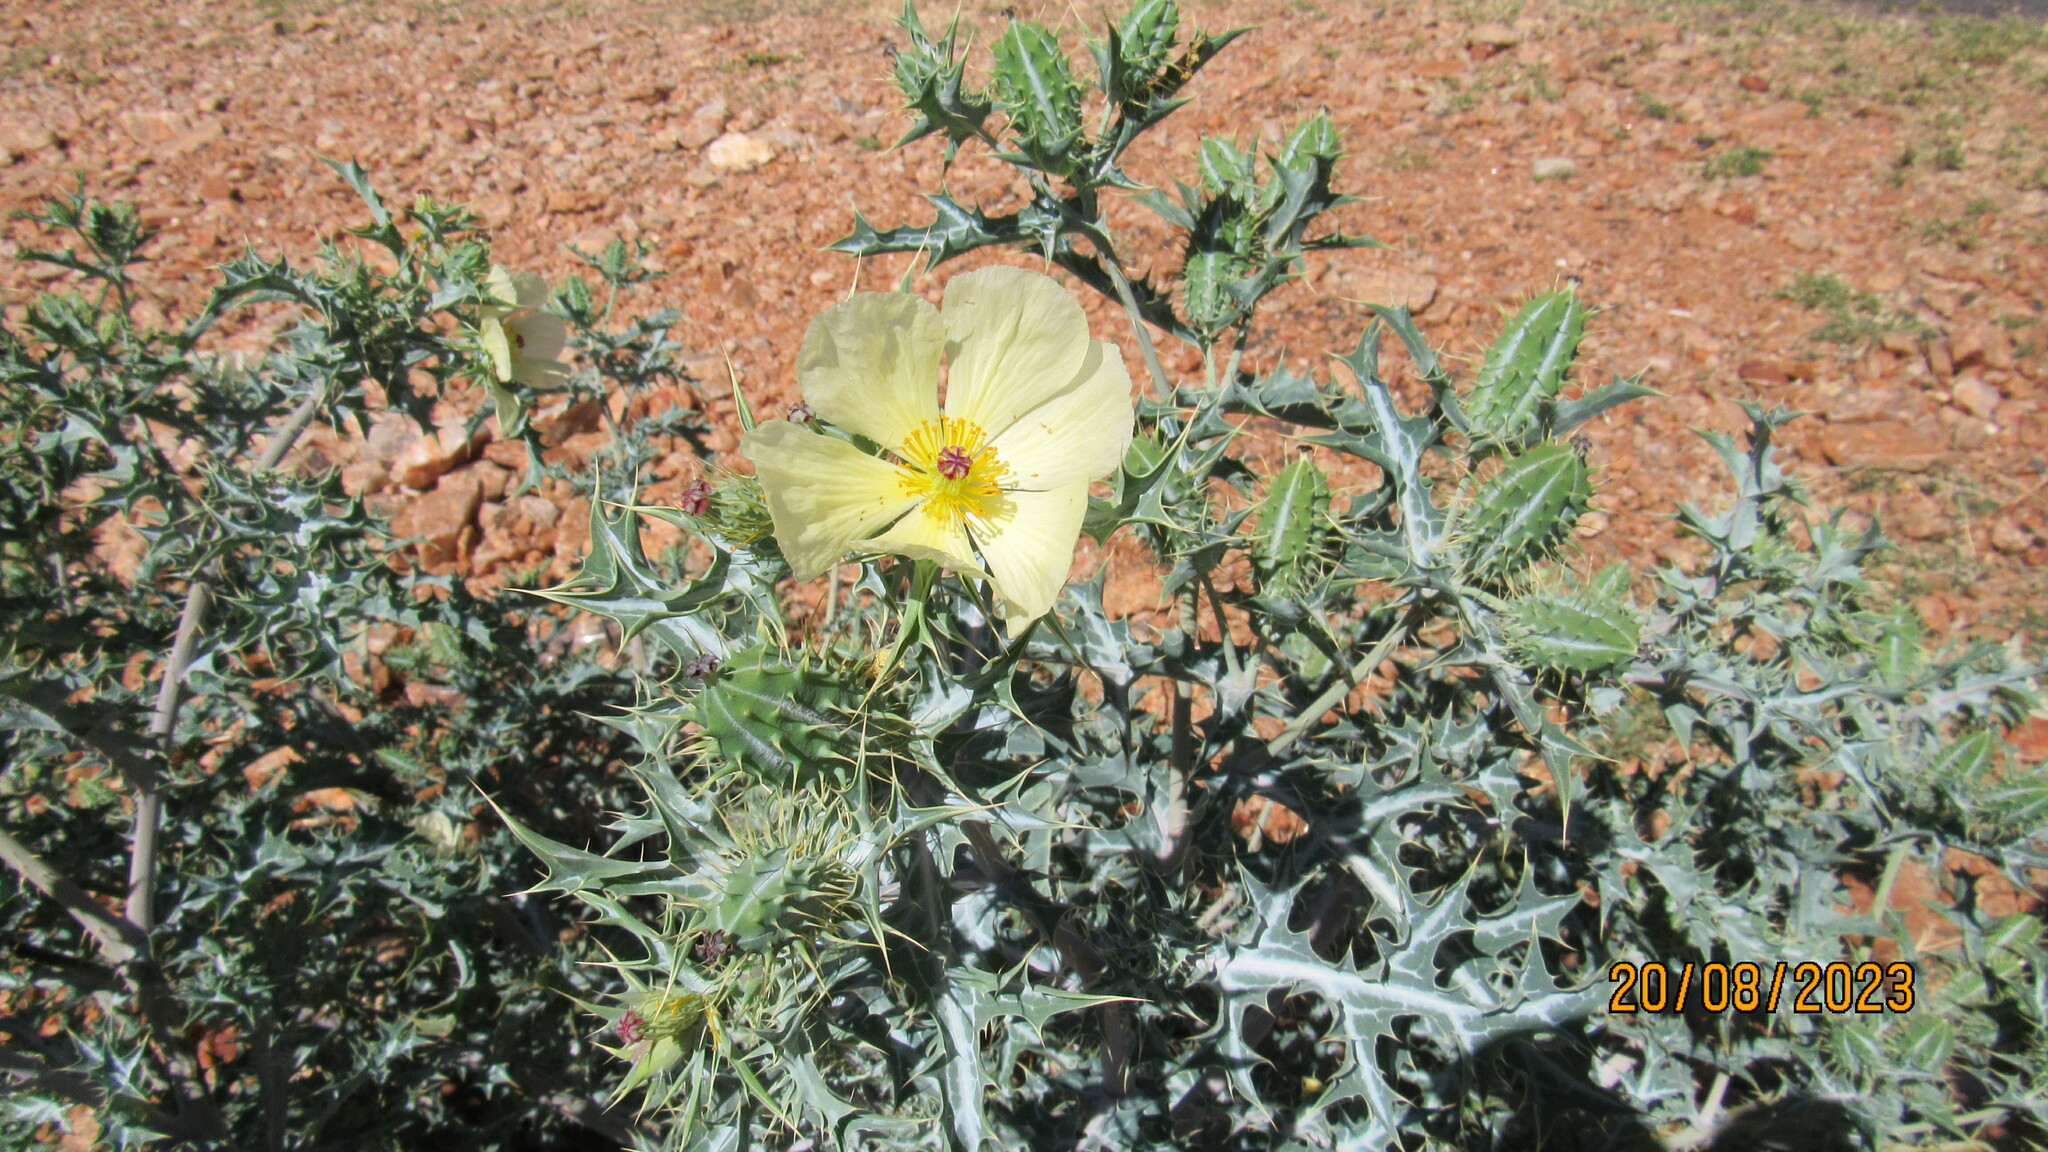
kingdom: Plantae
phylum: Tracheophyta
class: Magnoliopsida
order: Ranunculales
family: Papaveraceae
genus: Argemone
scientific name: Argemone ochroleuca
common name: White-flower mexican-poppy
